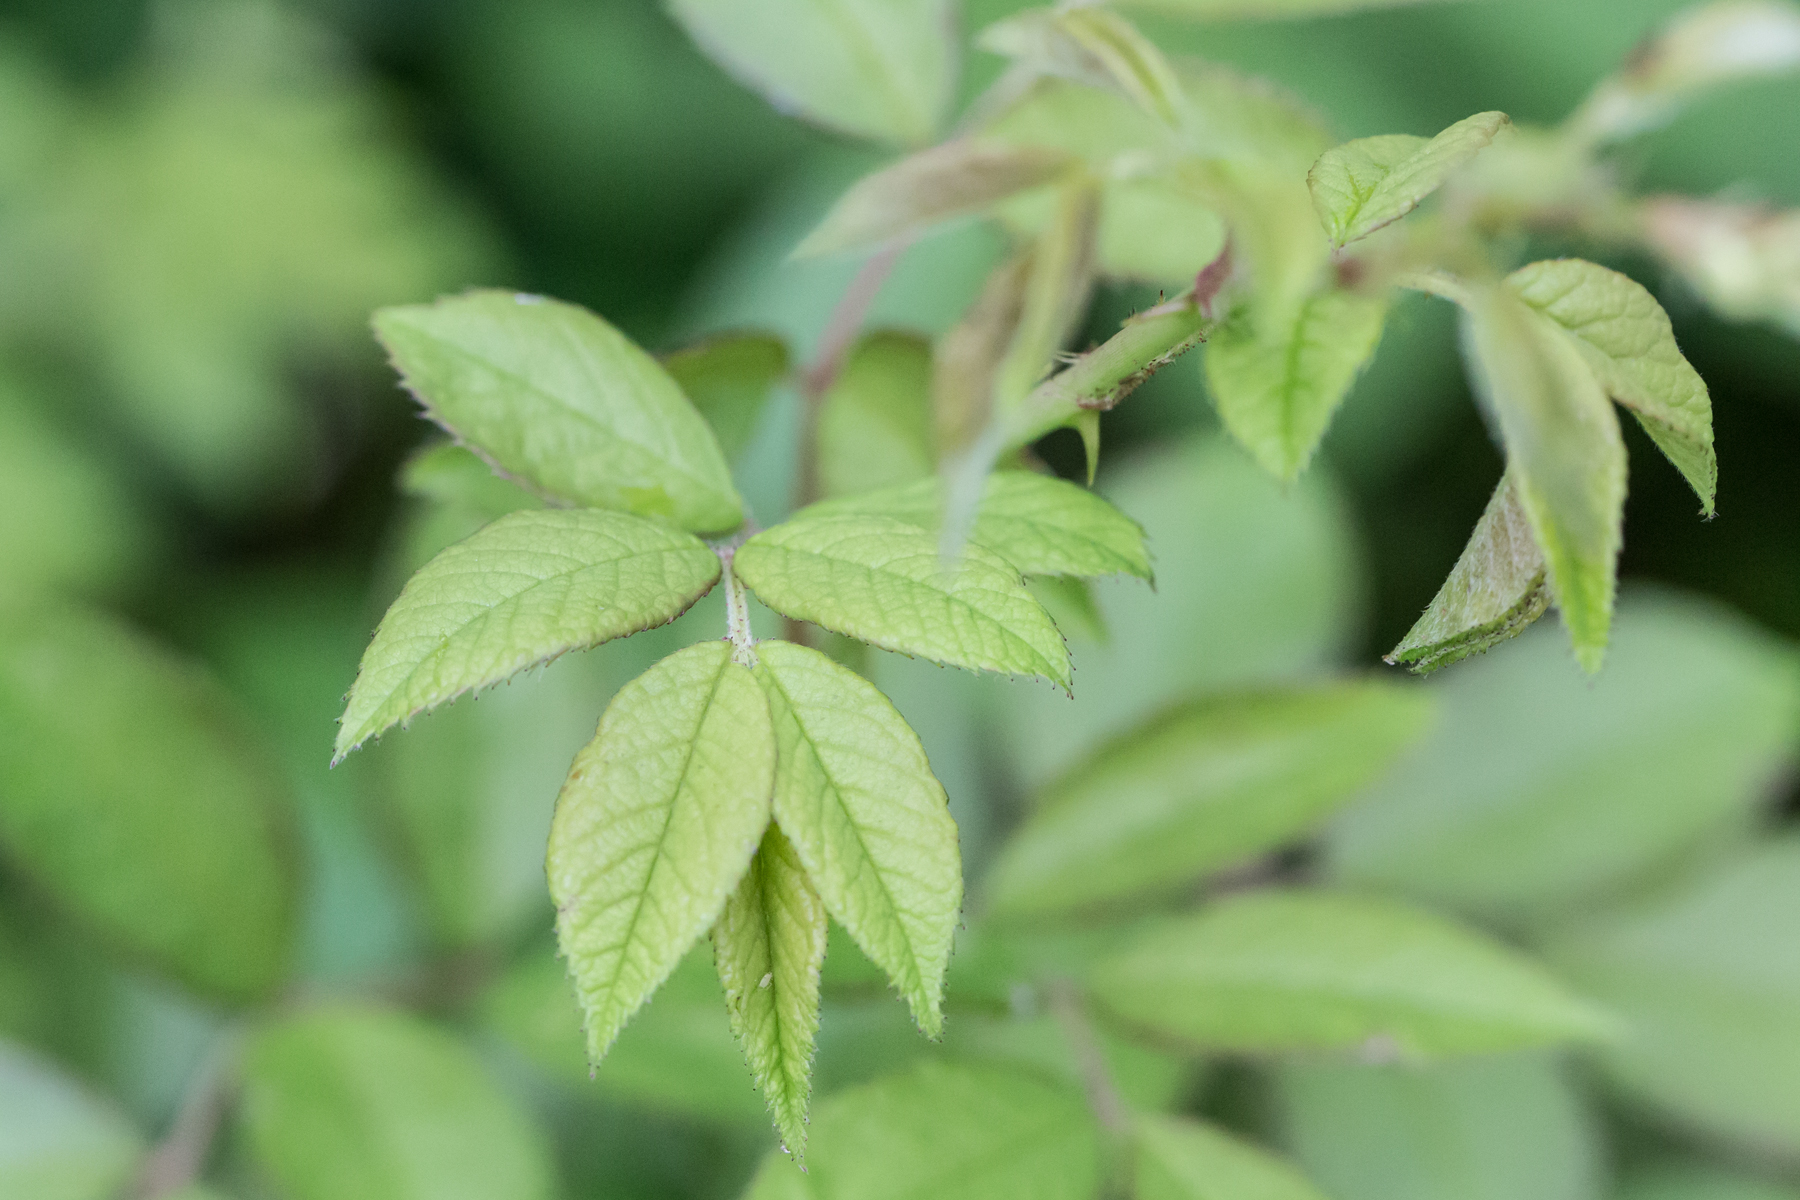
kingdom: Plantae
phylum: Tracheophyta
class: Magnoliopsida
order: Rosales
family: Rosaceae
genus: Rosa
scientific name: Rosa multiflora
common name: Multiflora rose
